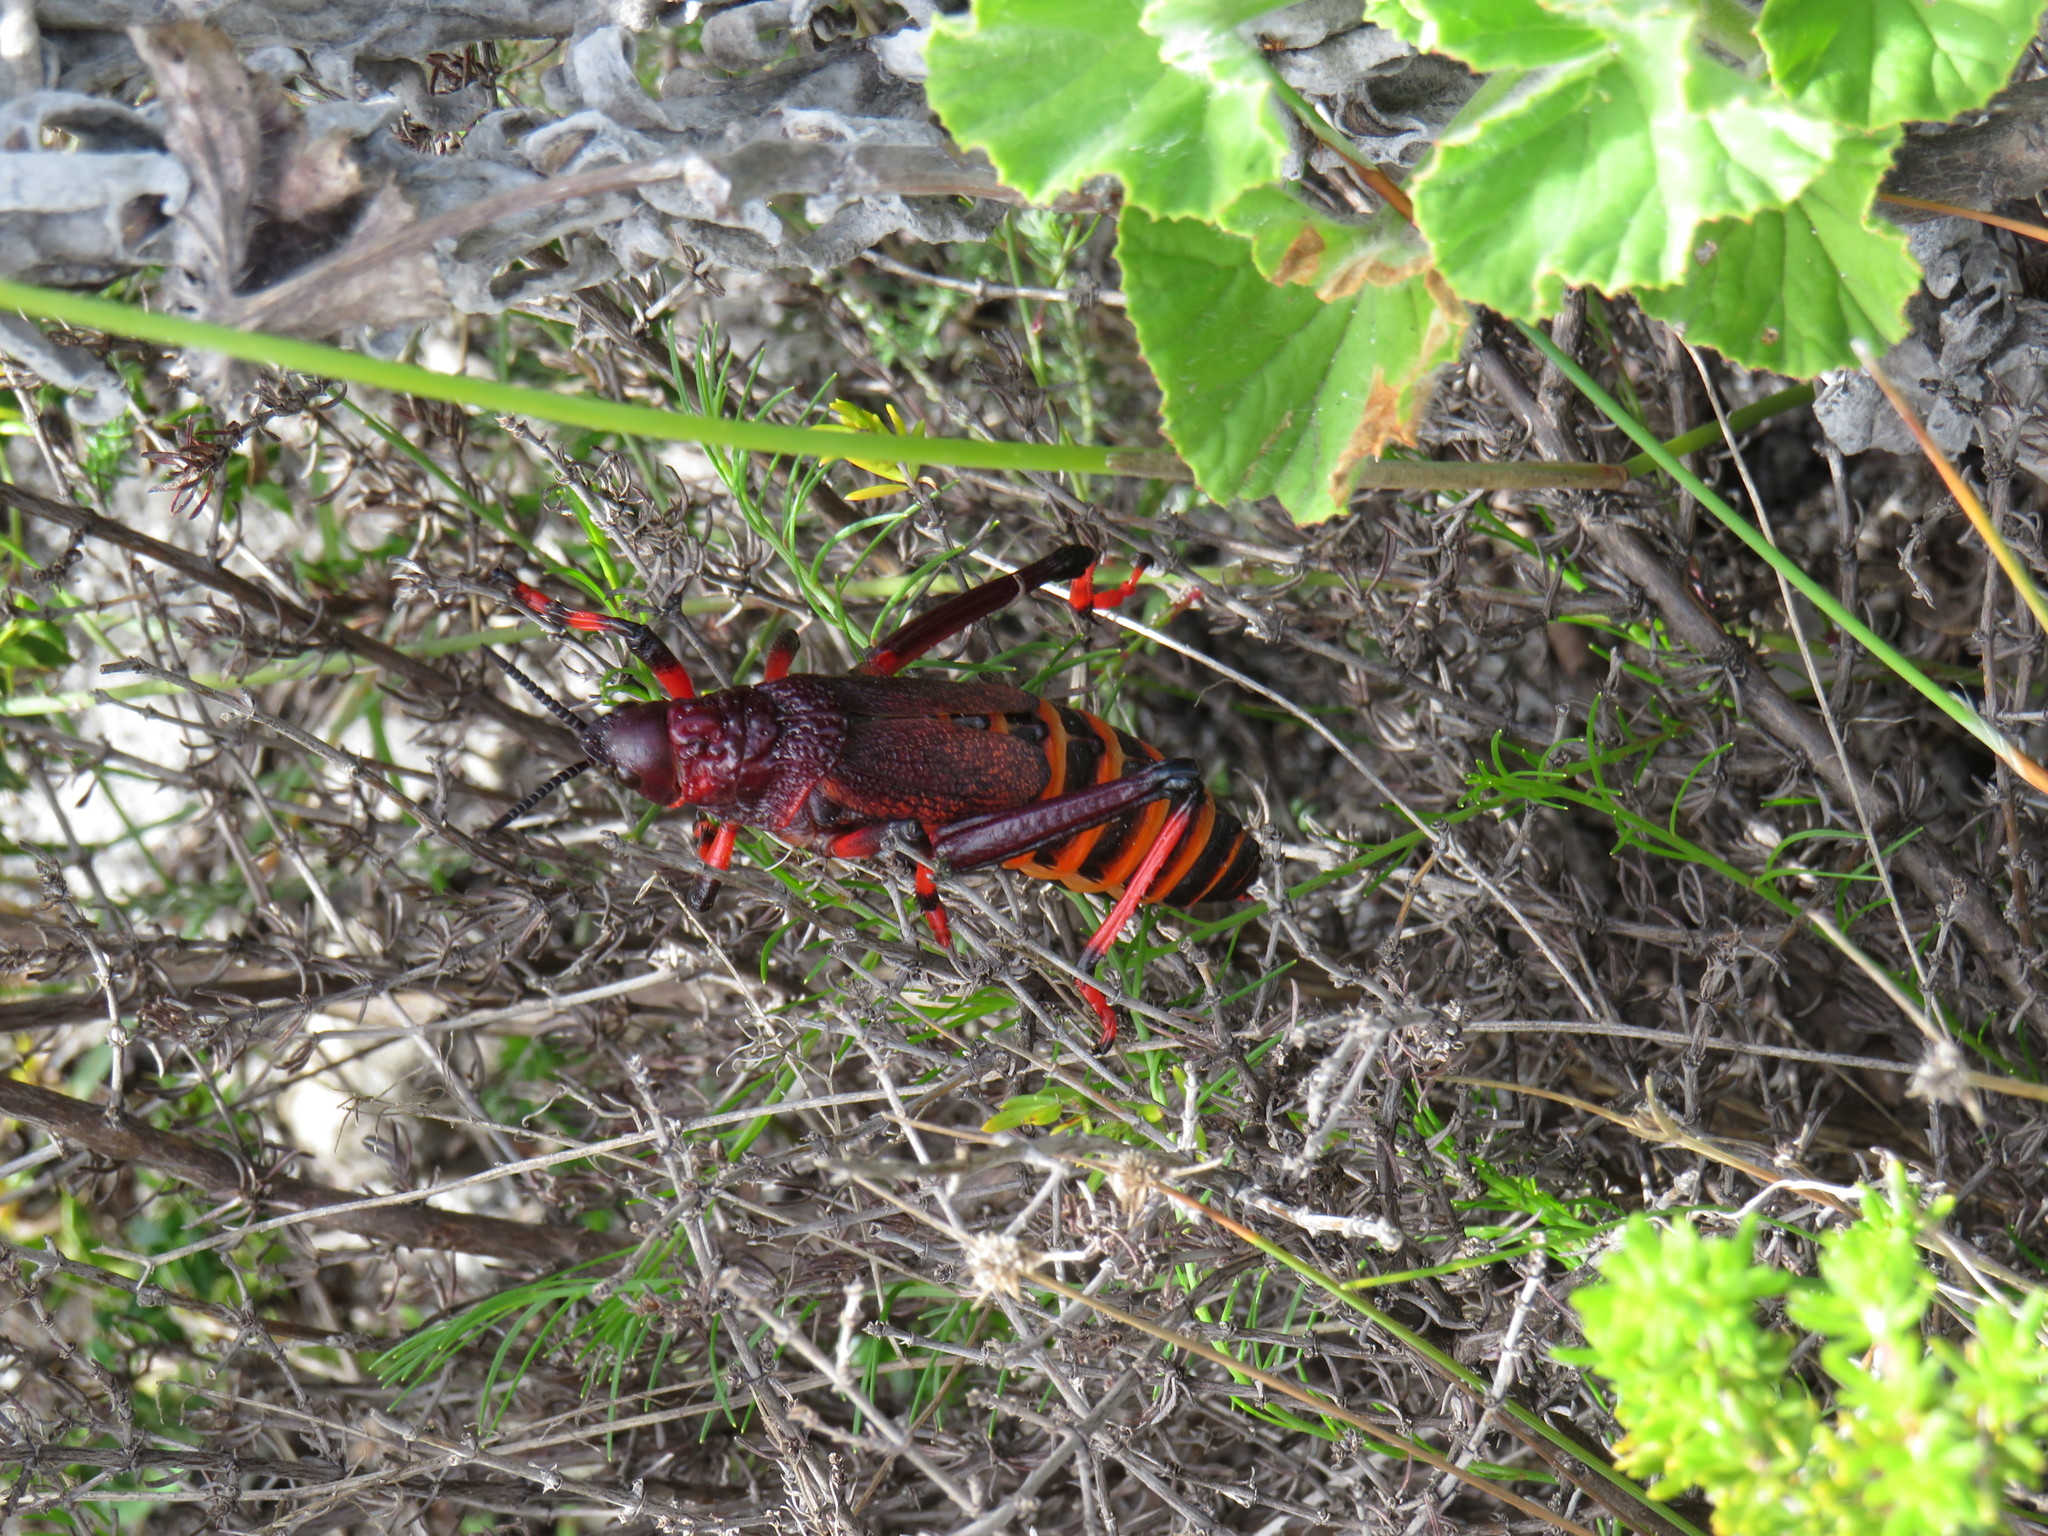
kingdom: Animalia
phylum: Arthropoda
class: Insecta
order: Orthoptera
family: Pyrgomorphidae
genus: Dictyophorus
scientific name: Dictyophorus spumans
